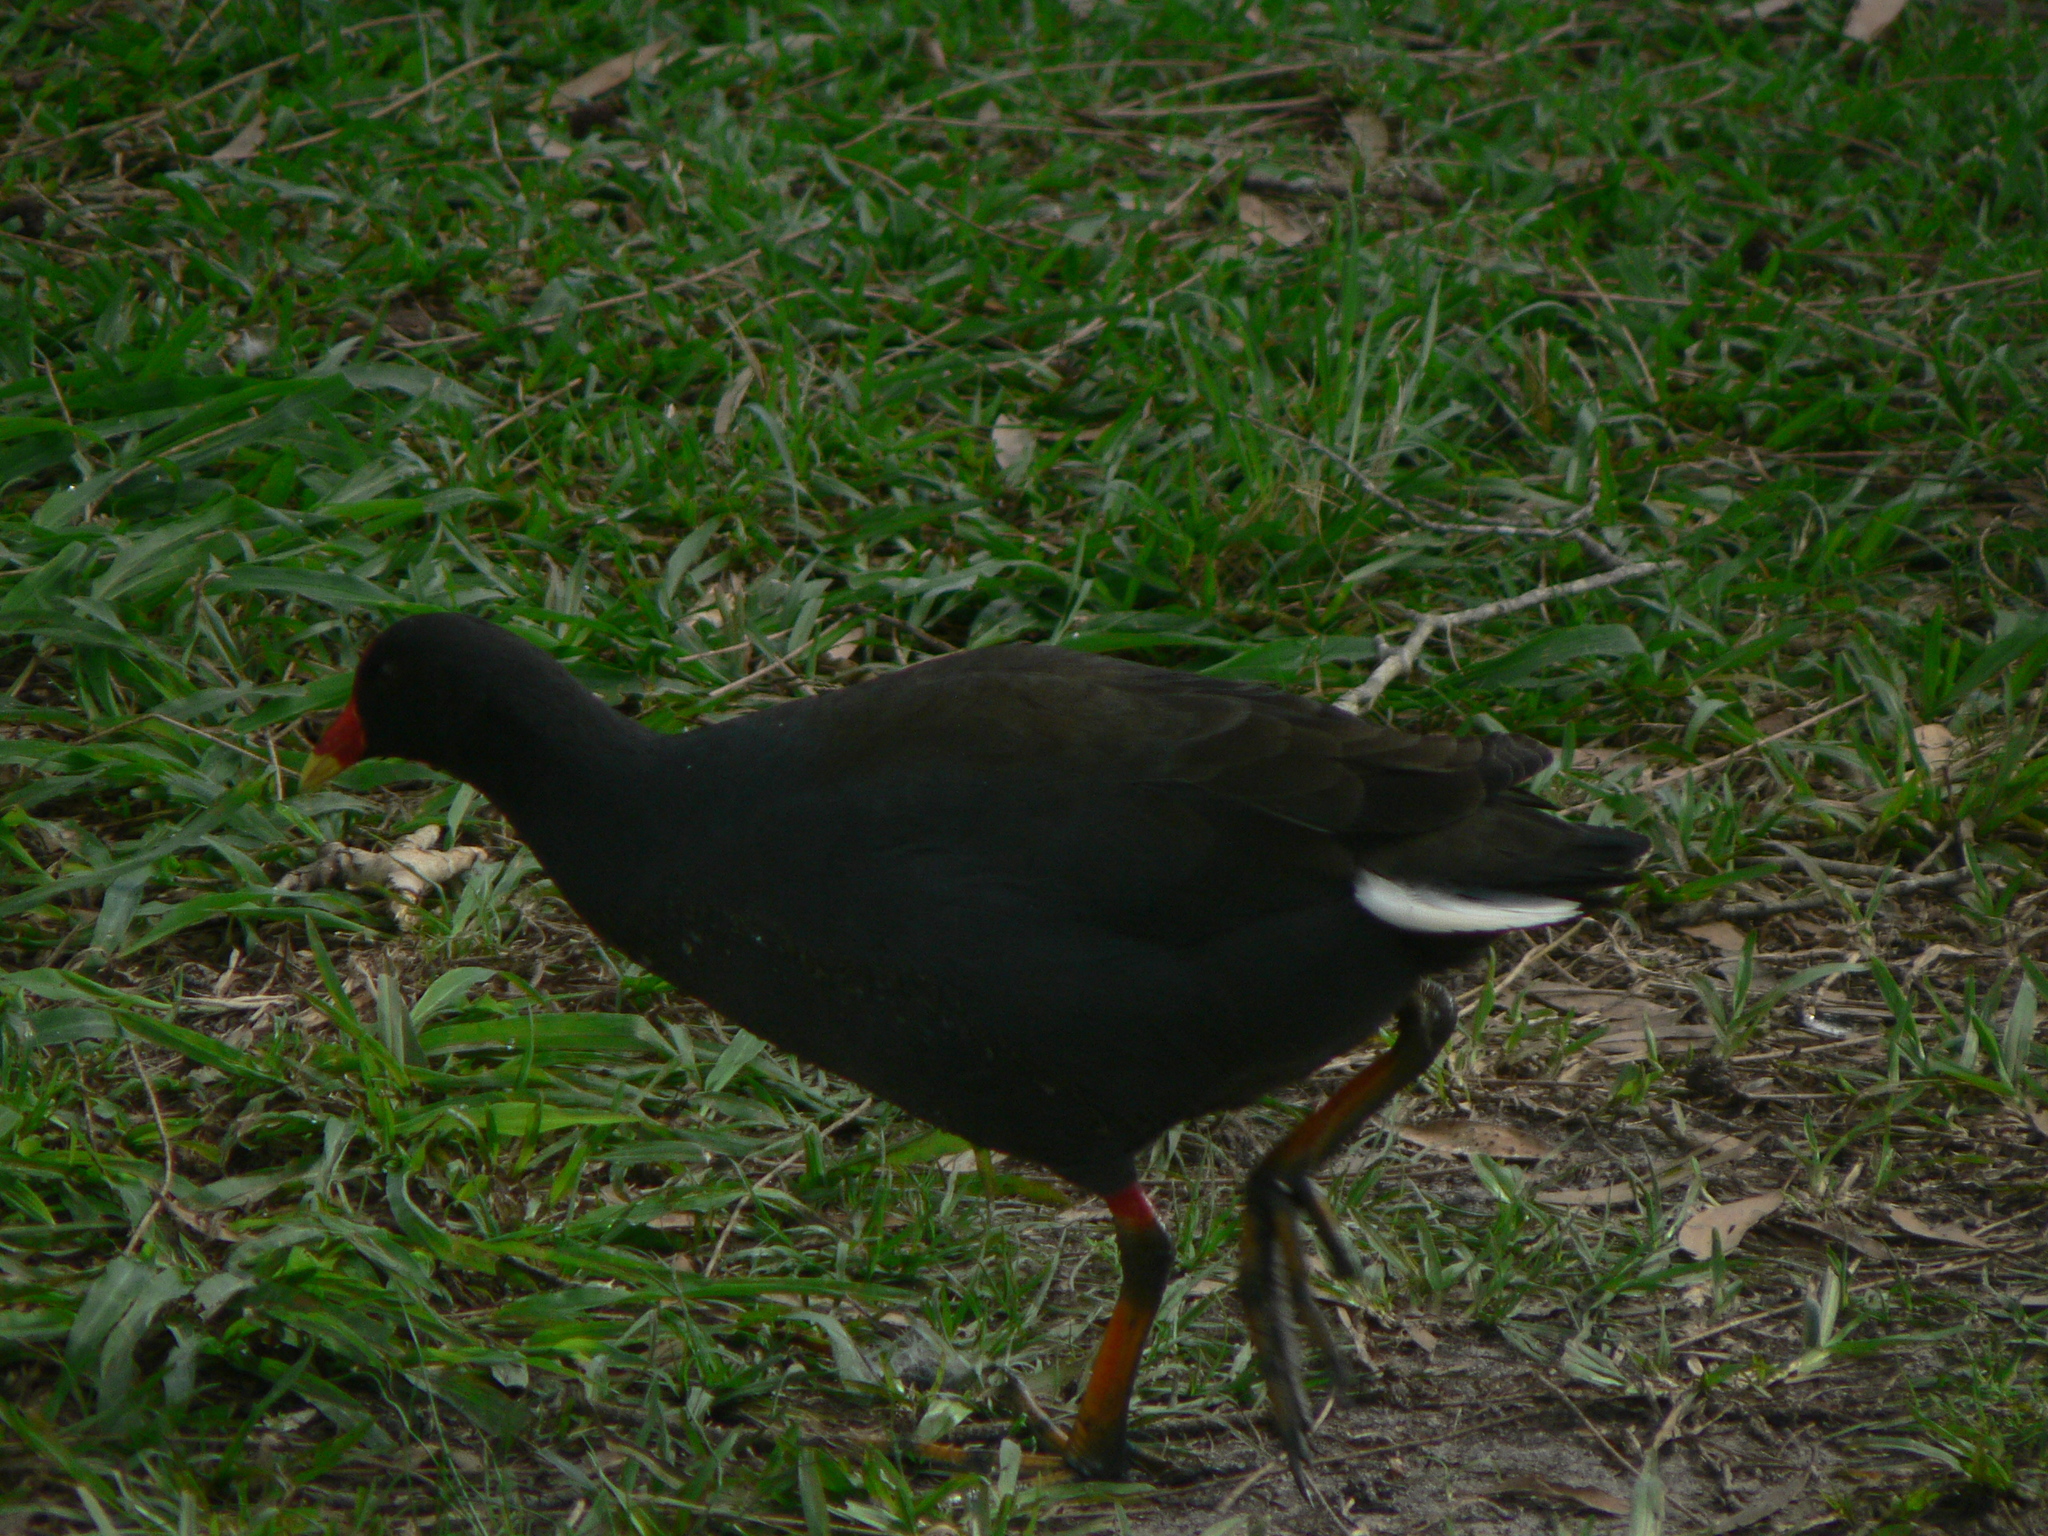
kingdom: Animalia
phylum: Chordata
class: Aves
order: Gruiformes
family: Rallidae
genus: Gallinula
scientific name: Gallinula tenebrosa
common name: Dusky moorhen
